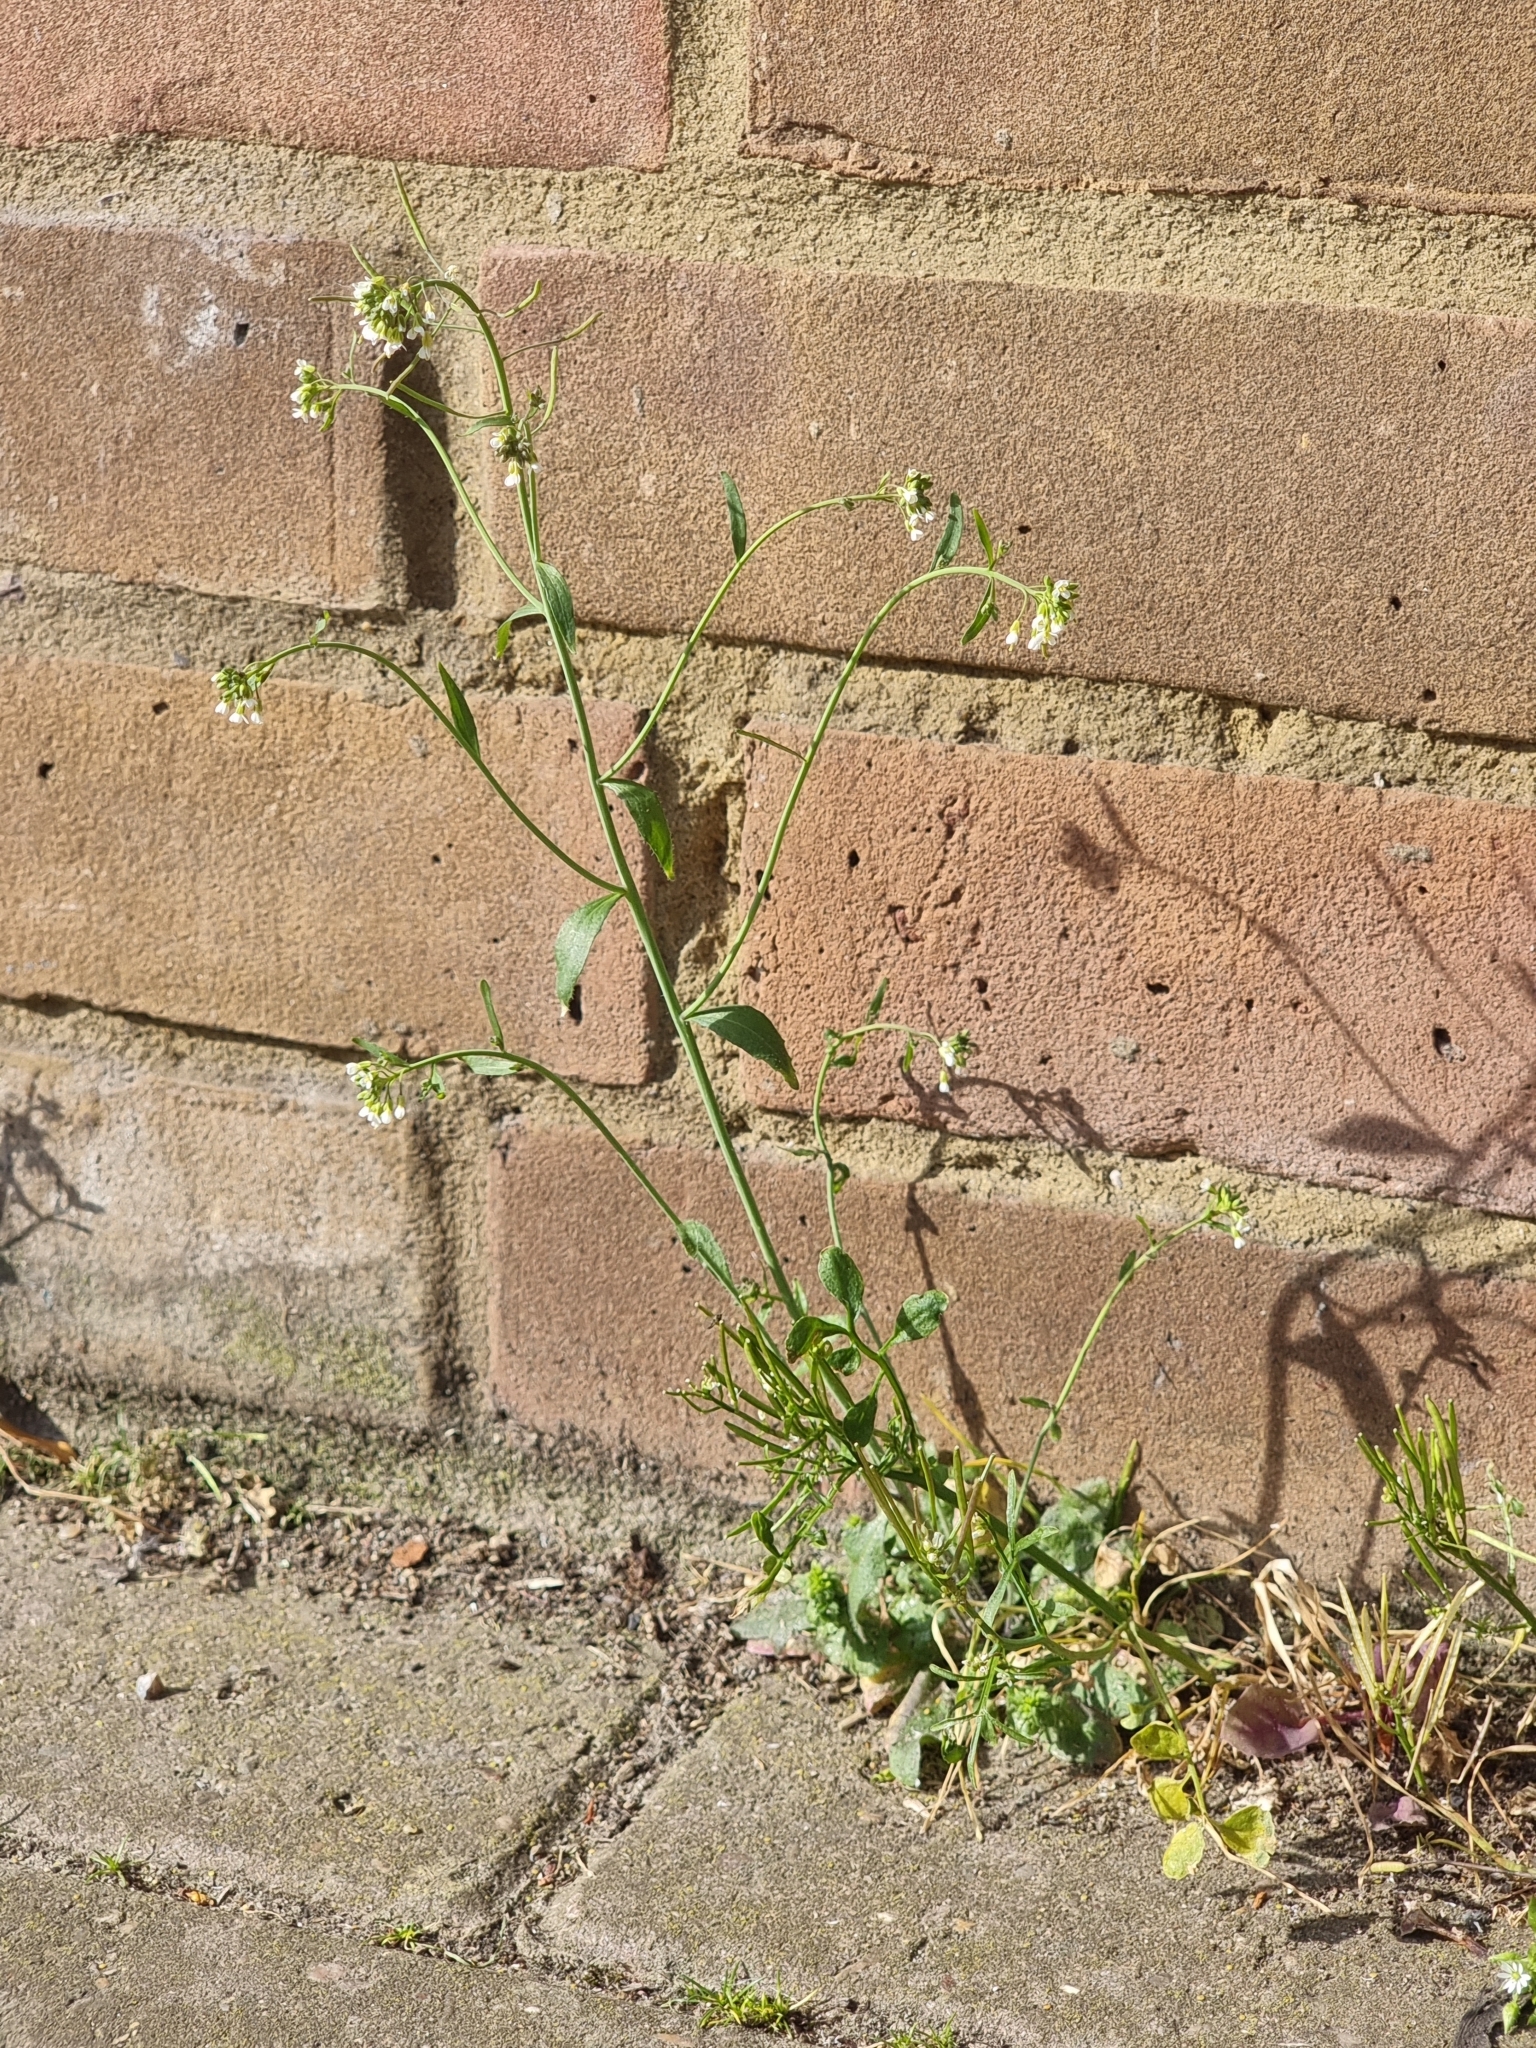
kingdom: Plantae
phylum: Tracheophyta
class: Magnoliopsida
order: Brassicales
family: Brassicaceae
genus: Arabidopsis
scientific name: Arabidopsis thaliana
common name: Thale cress
